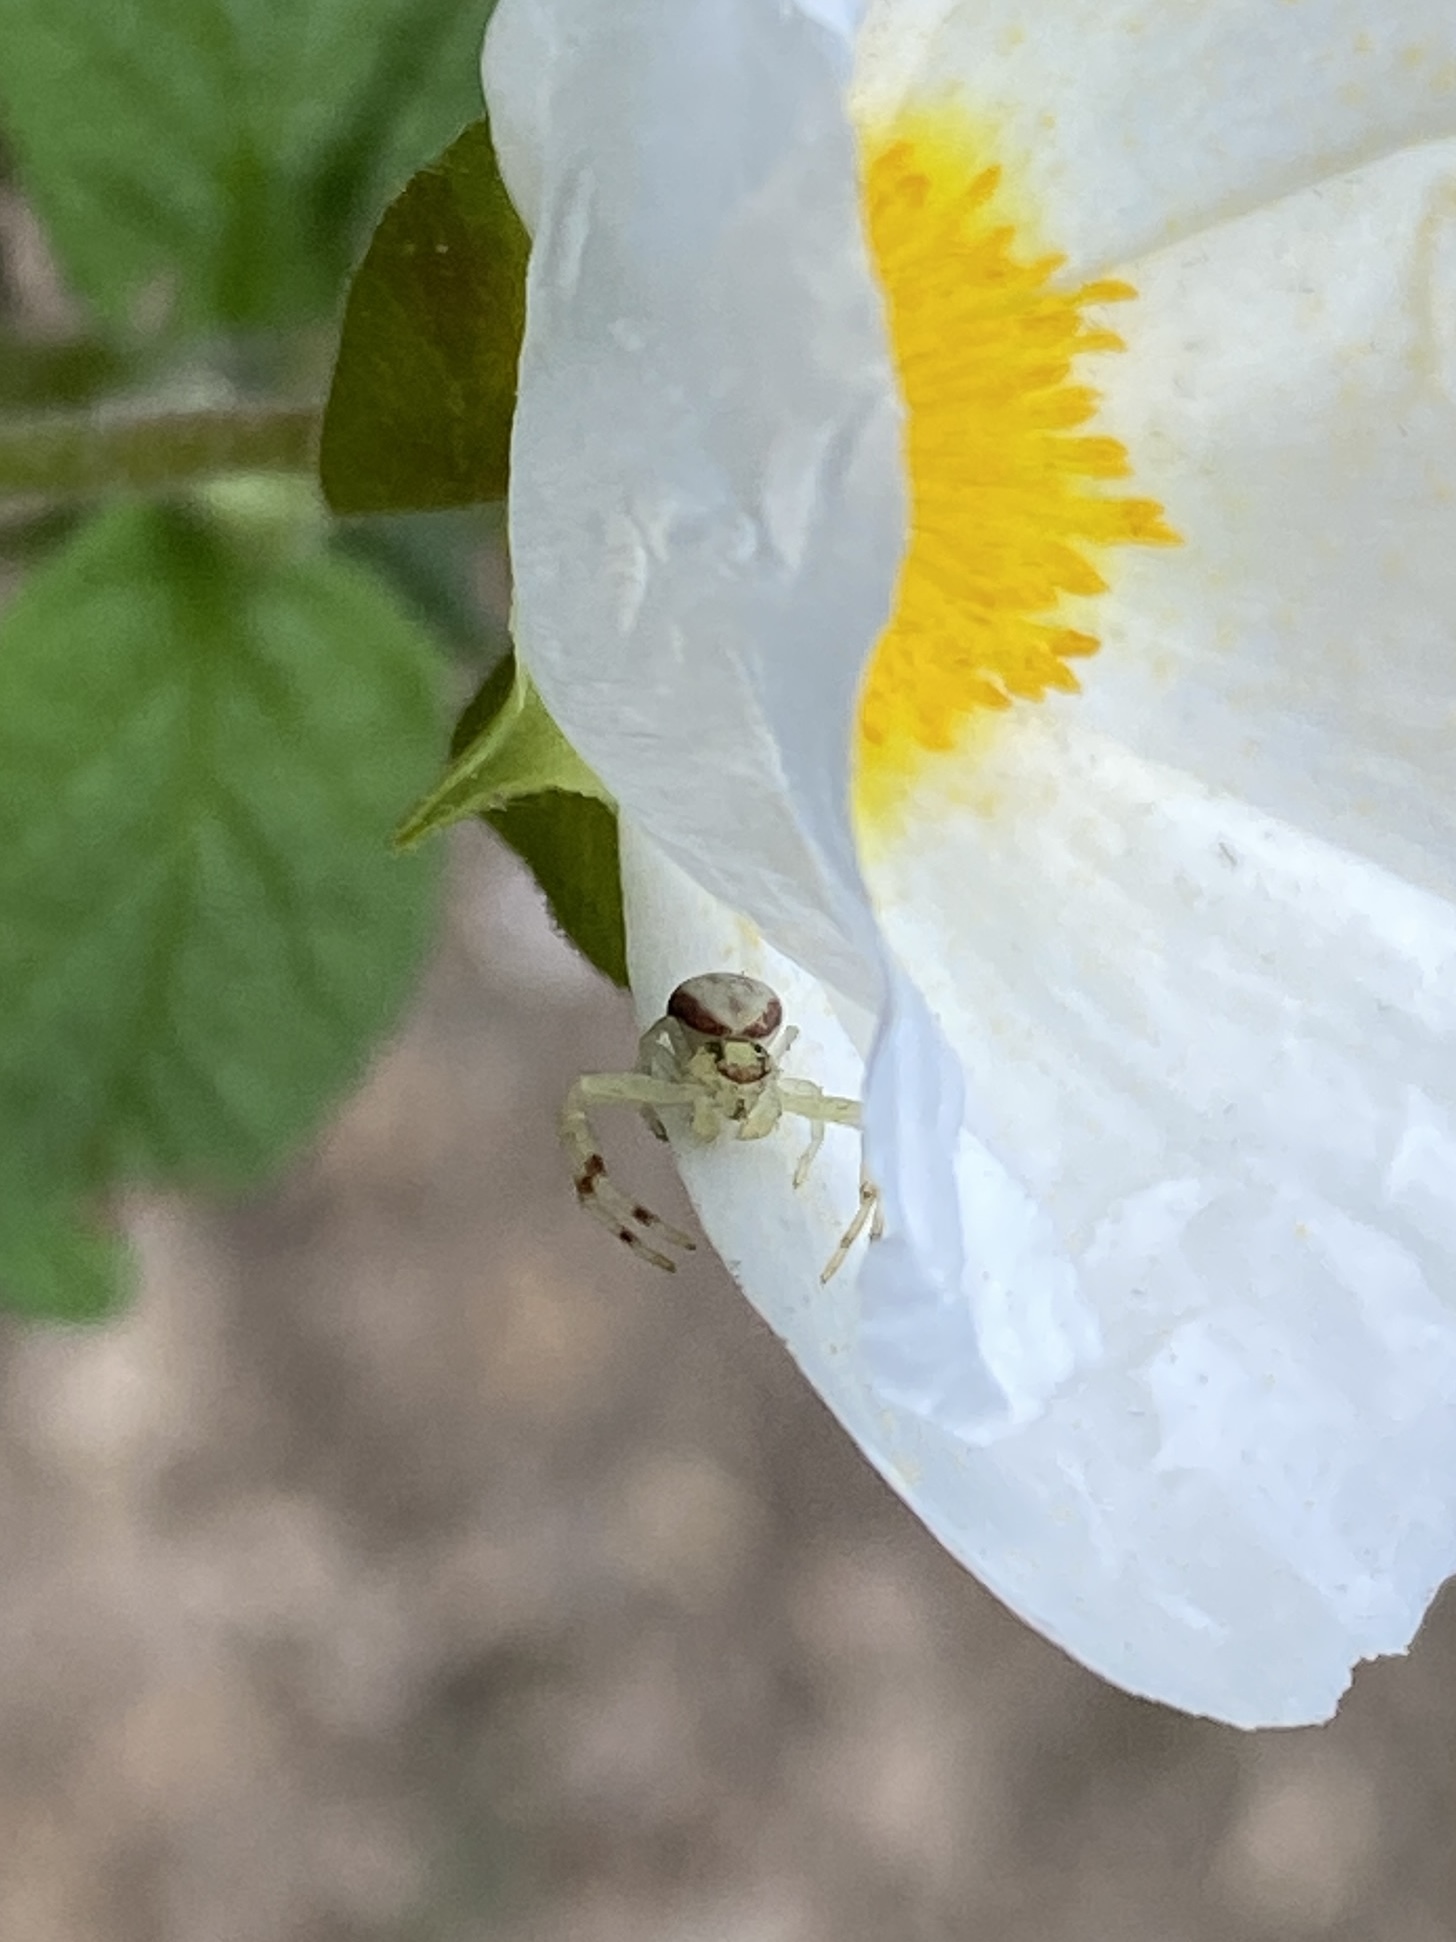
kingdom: Animalia
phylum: Arthropoda
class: Arachnida
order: Araneae
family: Thomisidae
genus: Misumena
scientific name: Misumena vatia
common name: Goldenrod crab spider
